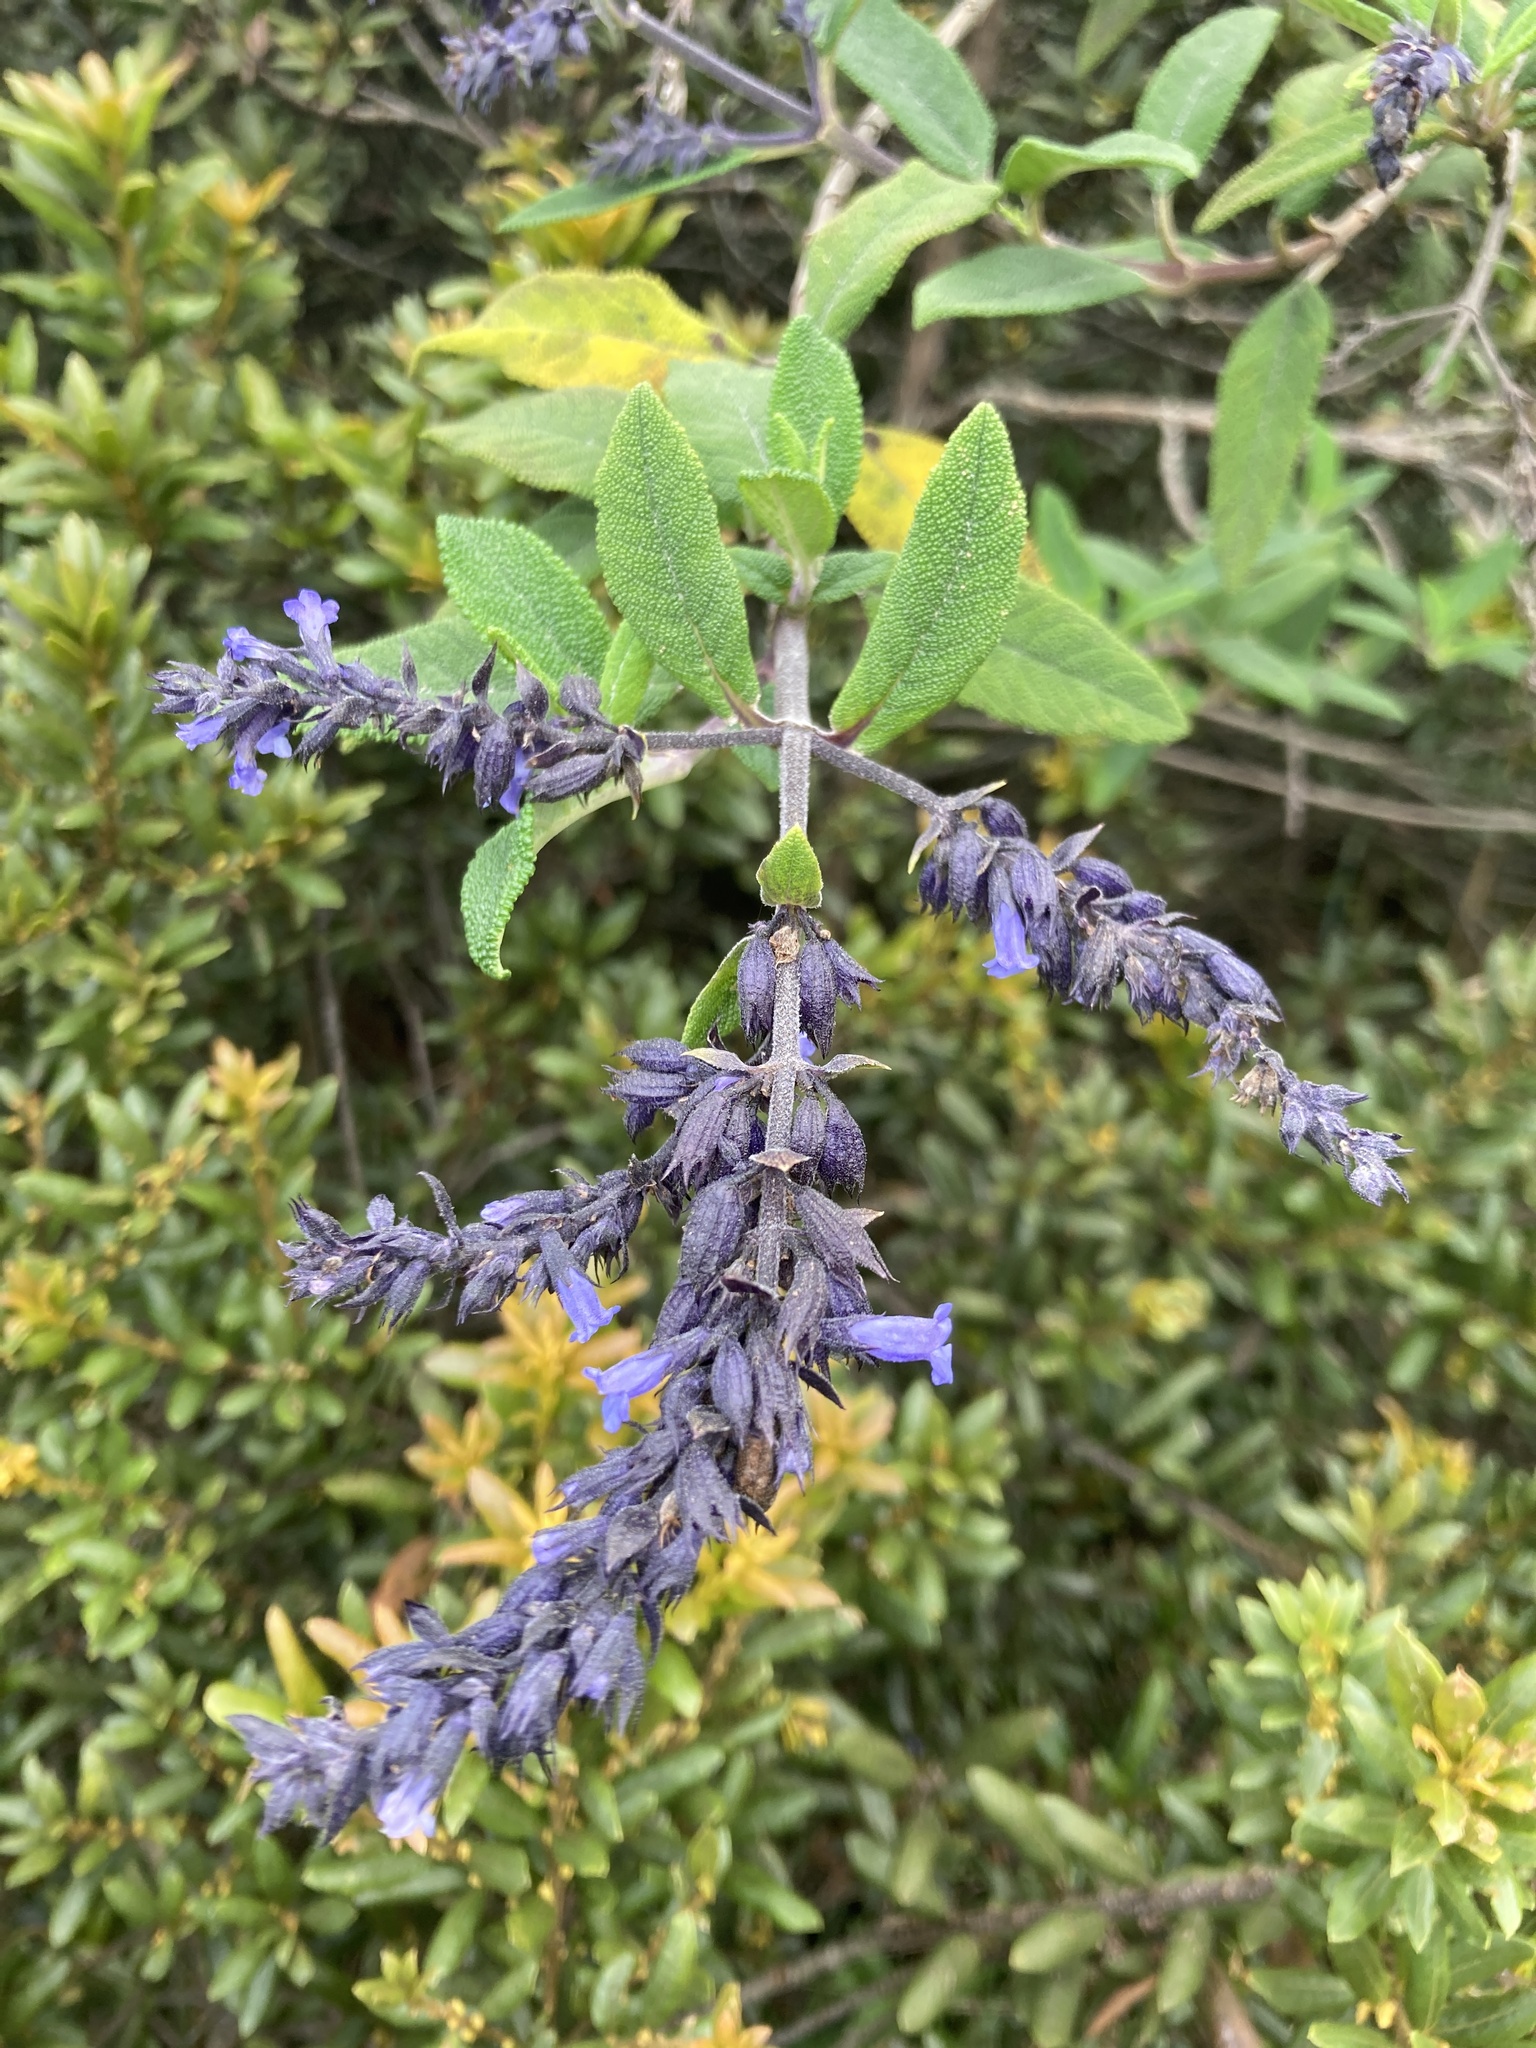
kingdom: Plantae
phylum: Tracheophyta
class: Magnoliopsida
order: Lamiales
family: Lamiaceae
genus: Lepechinia
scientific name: Lepechinia salviifolia
